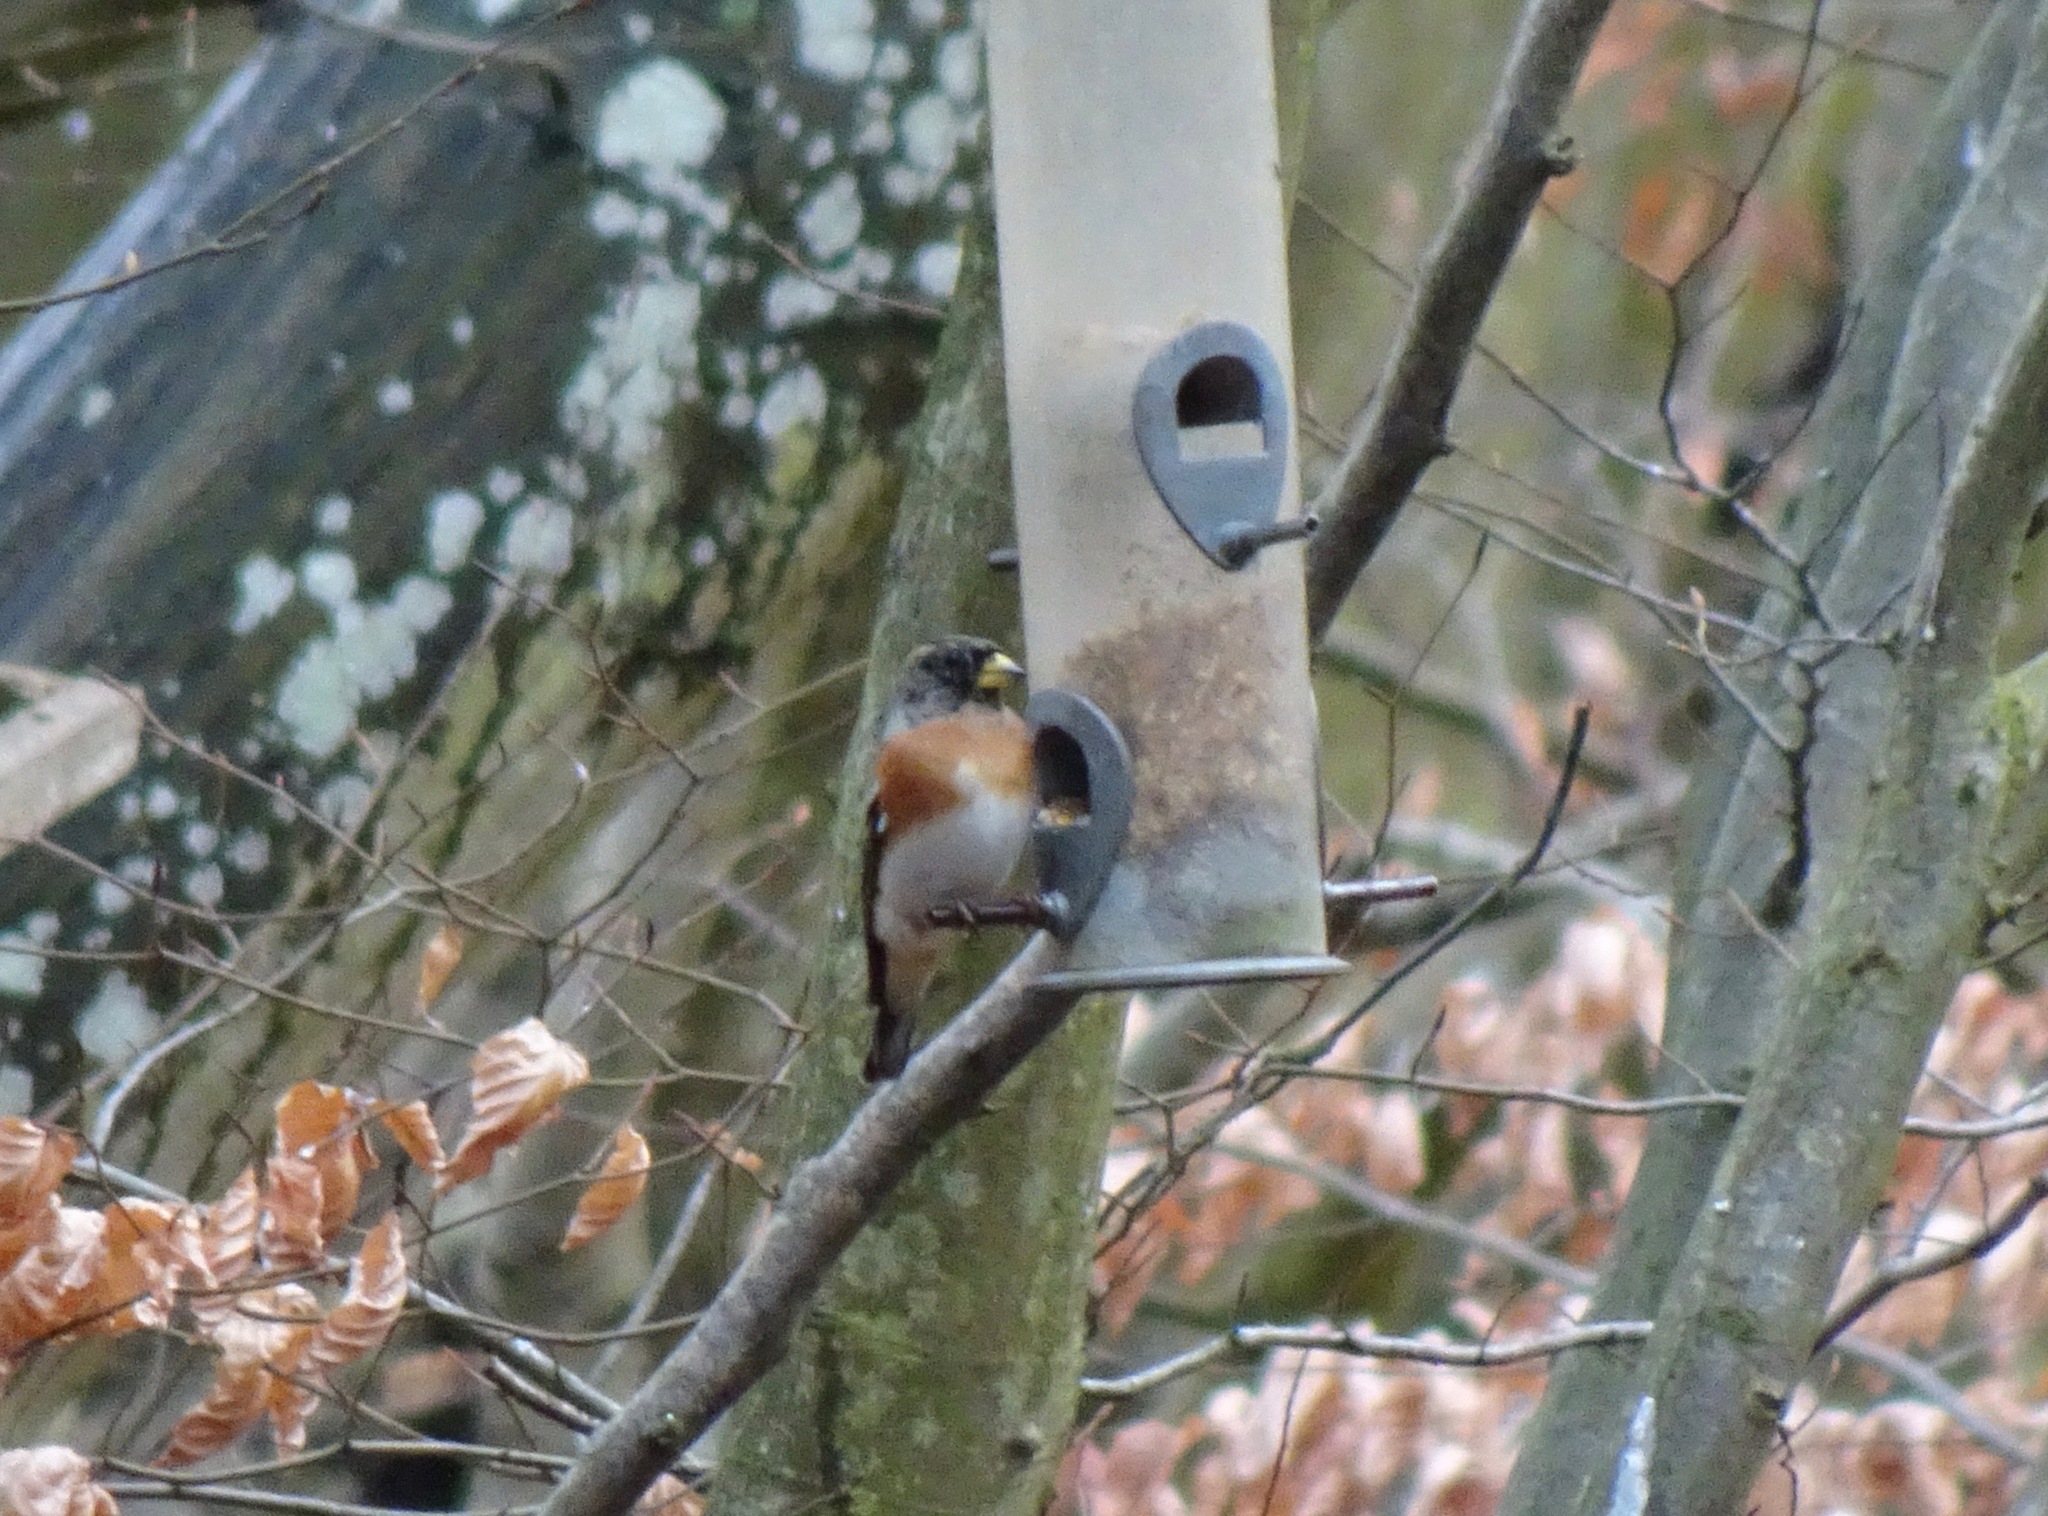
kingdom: Animalia
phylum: Chordata
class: Aves
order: Passeriformes
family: Fringillidae
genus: Fringilla
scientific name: Fringilla montifringilla
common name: Brambling
